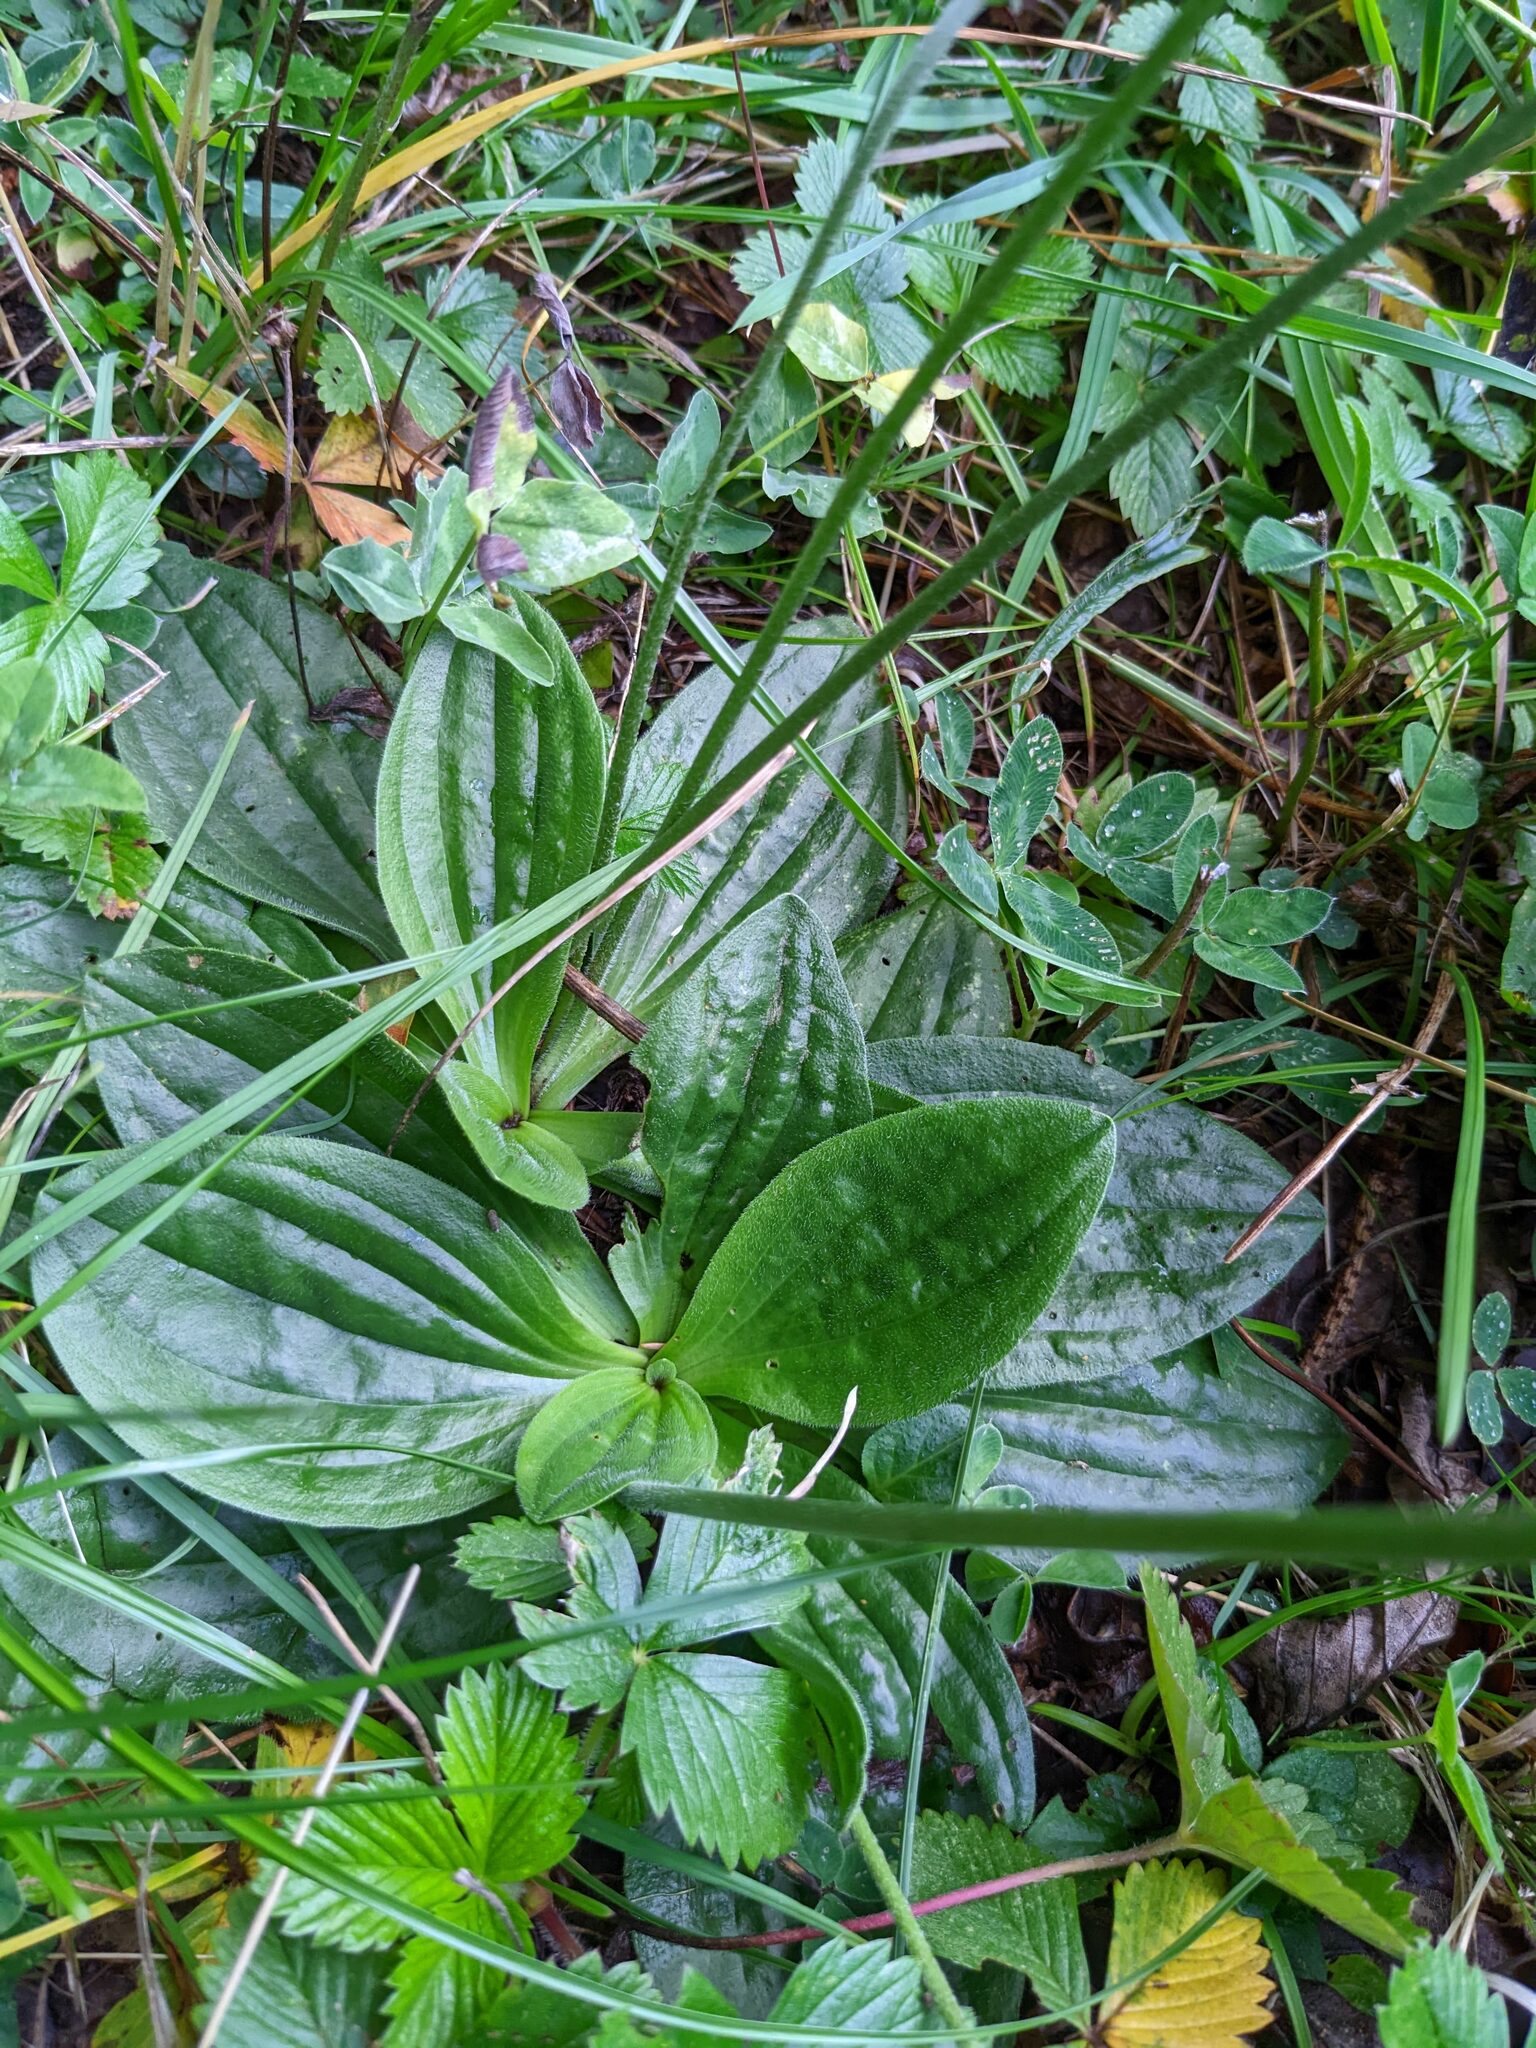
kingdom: Plantae
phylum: Tracheophyta
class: Magnoliopsida
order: Lamiales
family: Plantaginaceae
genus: Plantago
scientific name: Plantago media
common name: Hoary plantain
